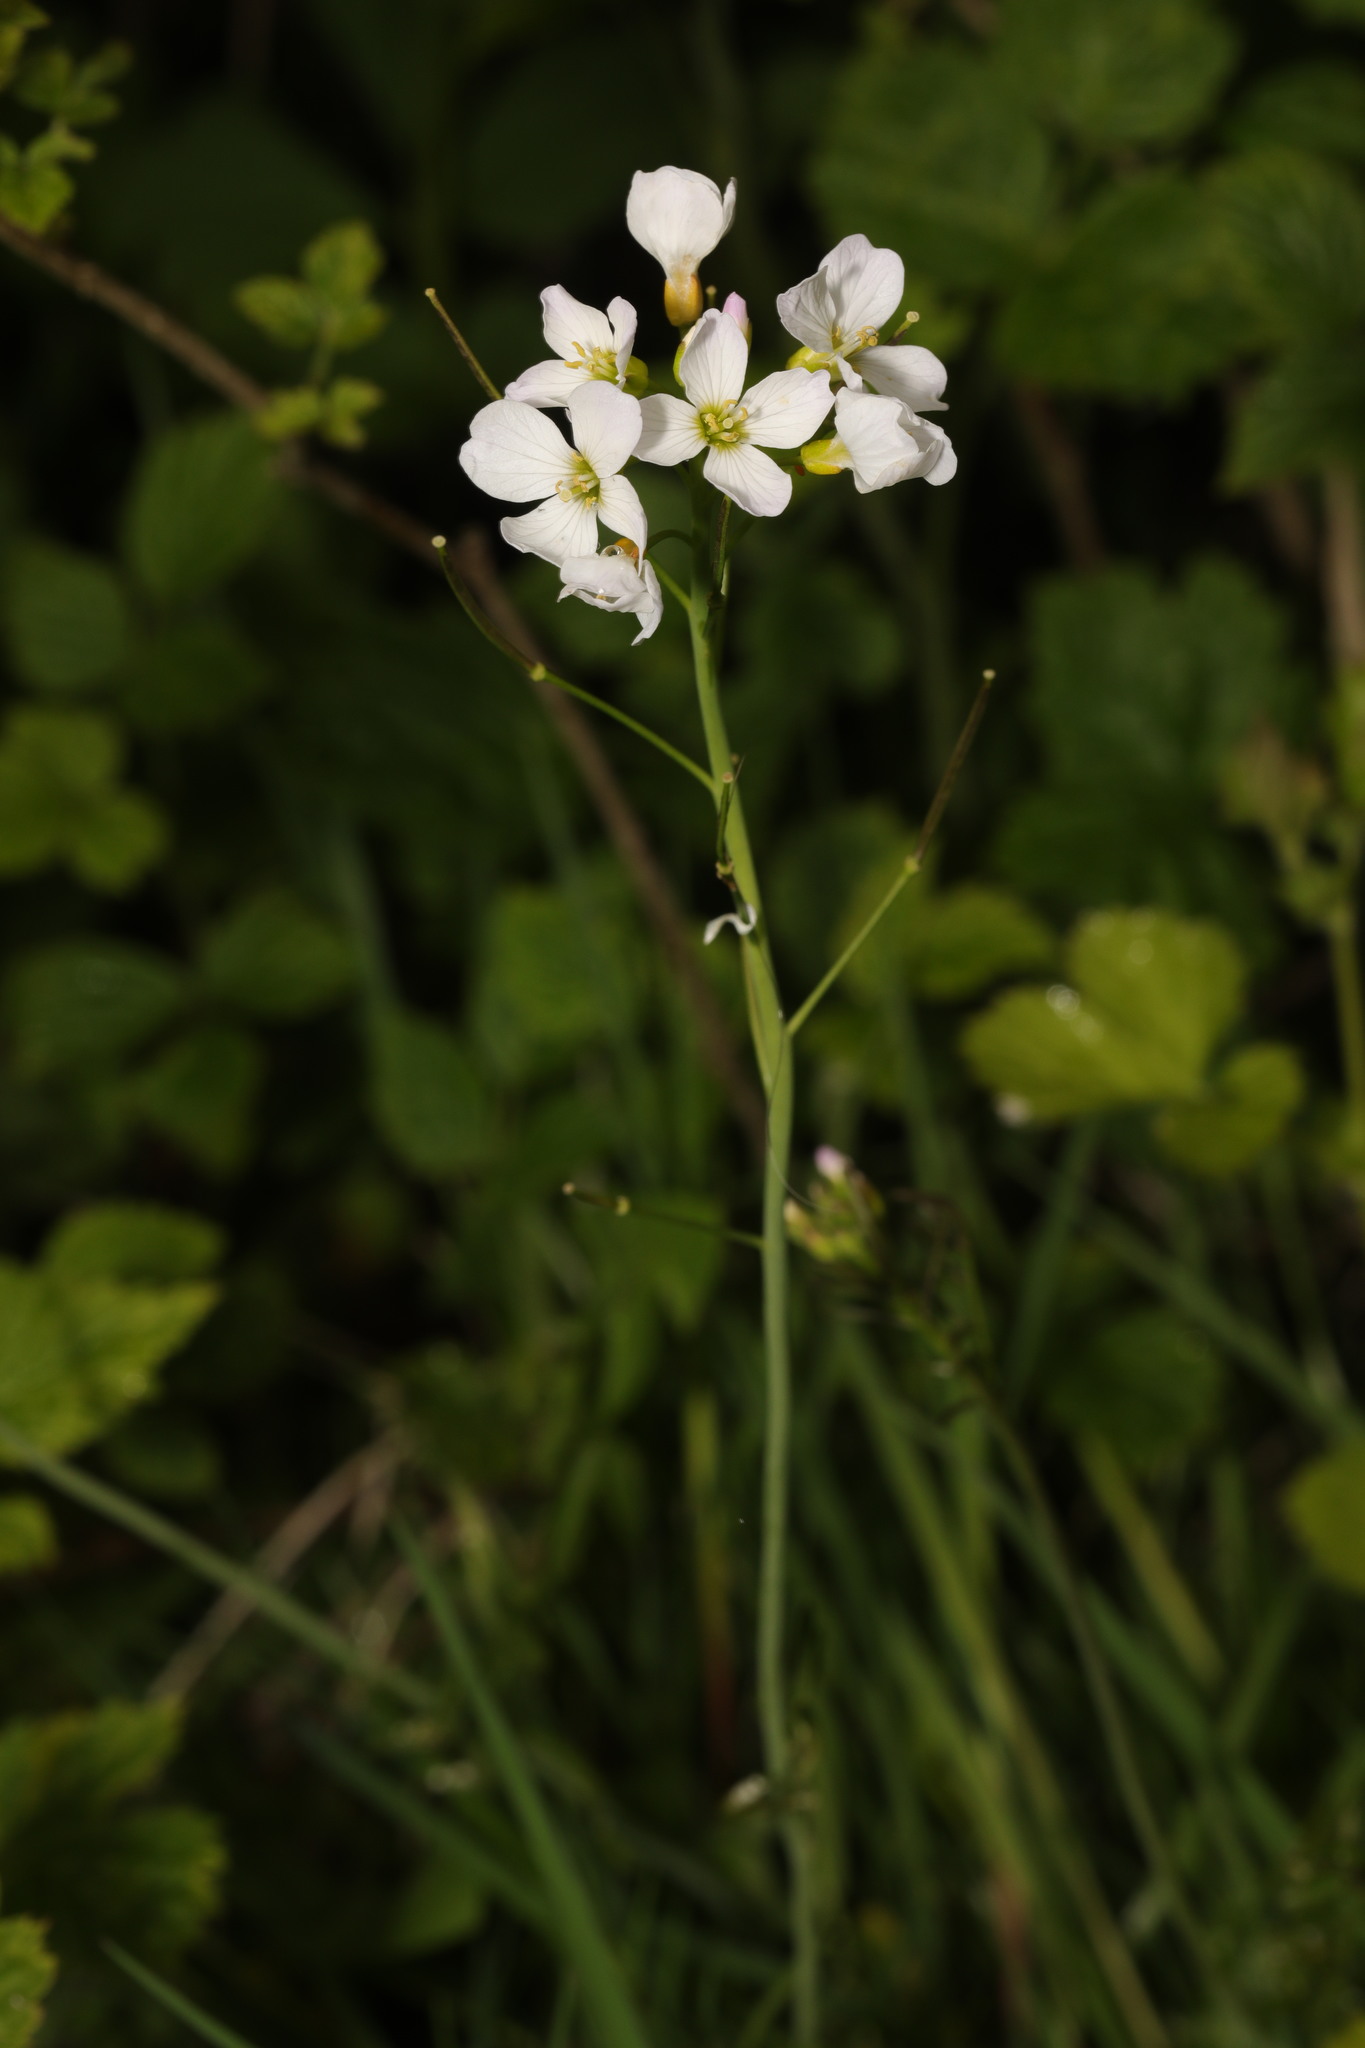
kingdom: Plantae
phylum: Tracheophyta
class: Magnoliopsida
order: Brassicales
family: Brassicaceae
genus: Cardamine
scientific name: Cardamine pratensis
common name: Cuckoo flower
